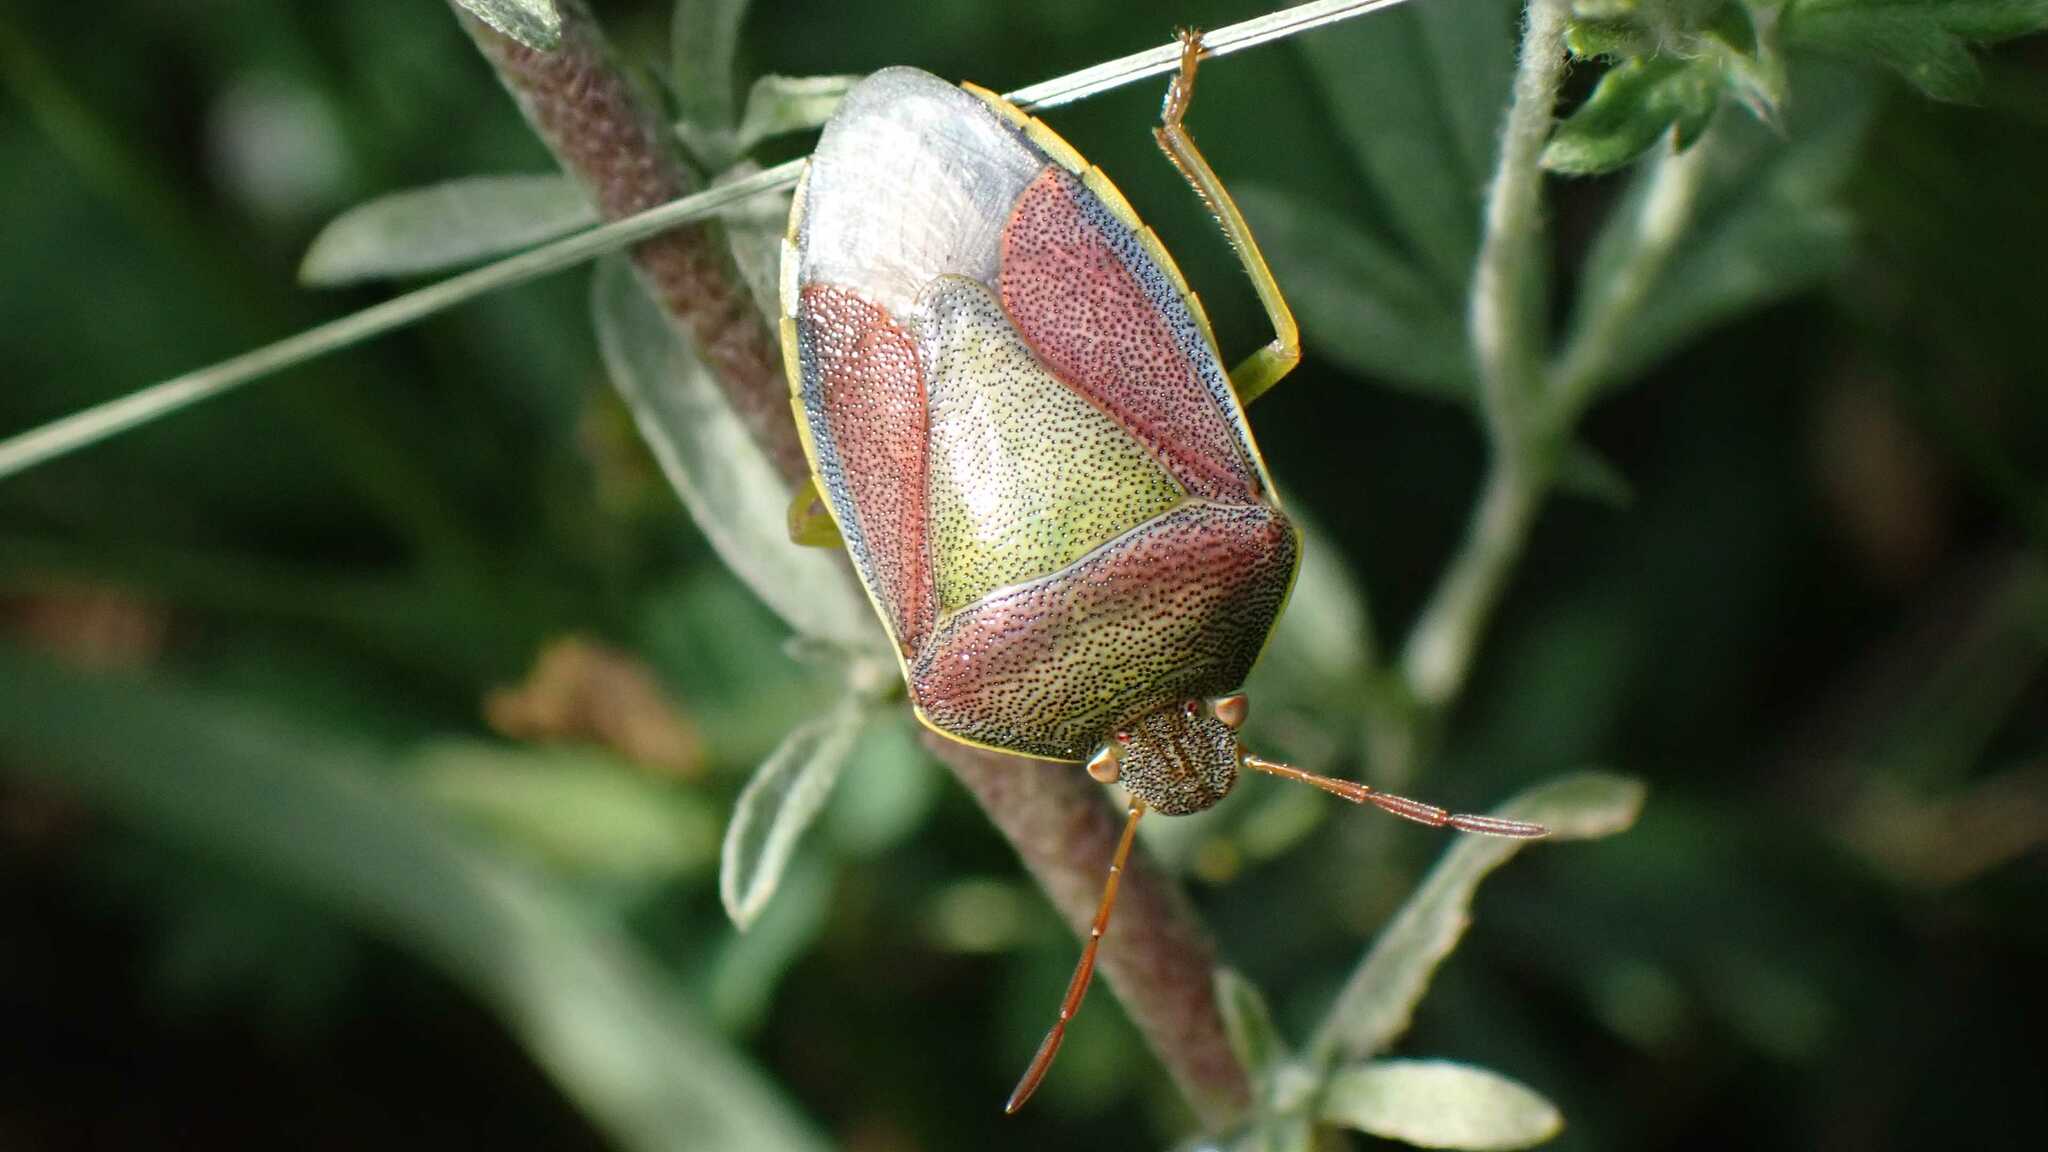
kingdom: Animalia
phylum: Arthropoda
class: Insecta
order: Hemiptera
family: Pentatomidae
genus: Piezodorus
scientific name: Piezodorus lituratus
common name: Stink bug
